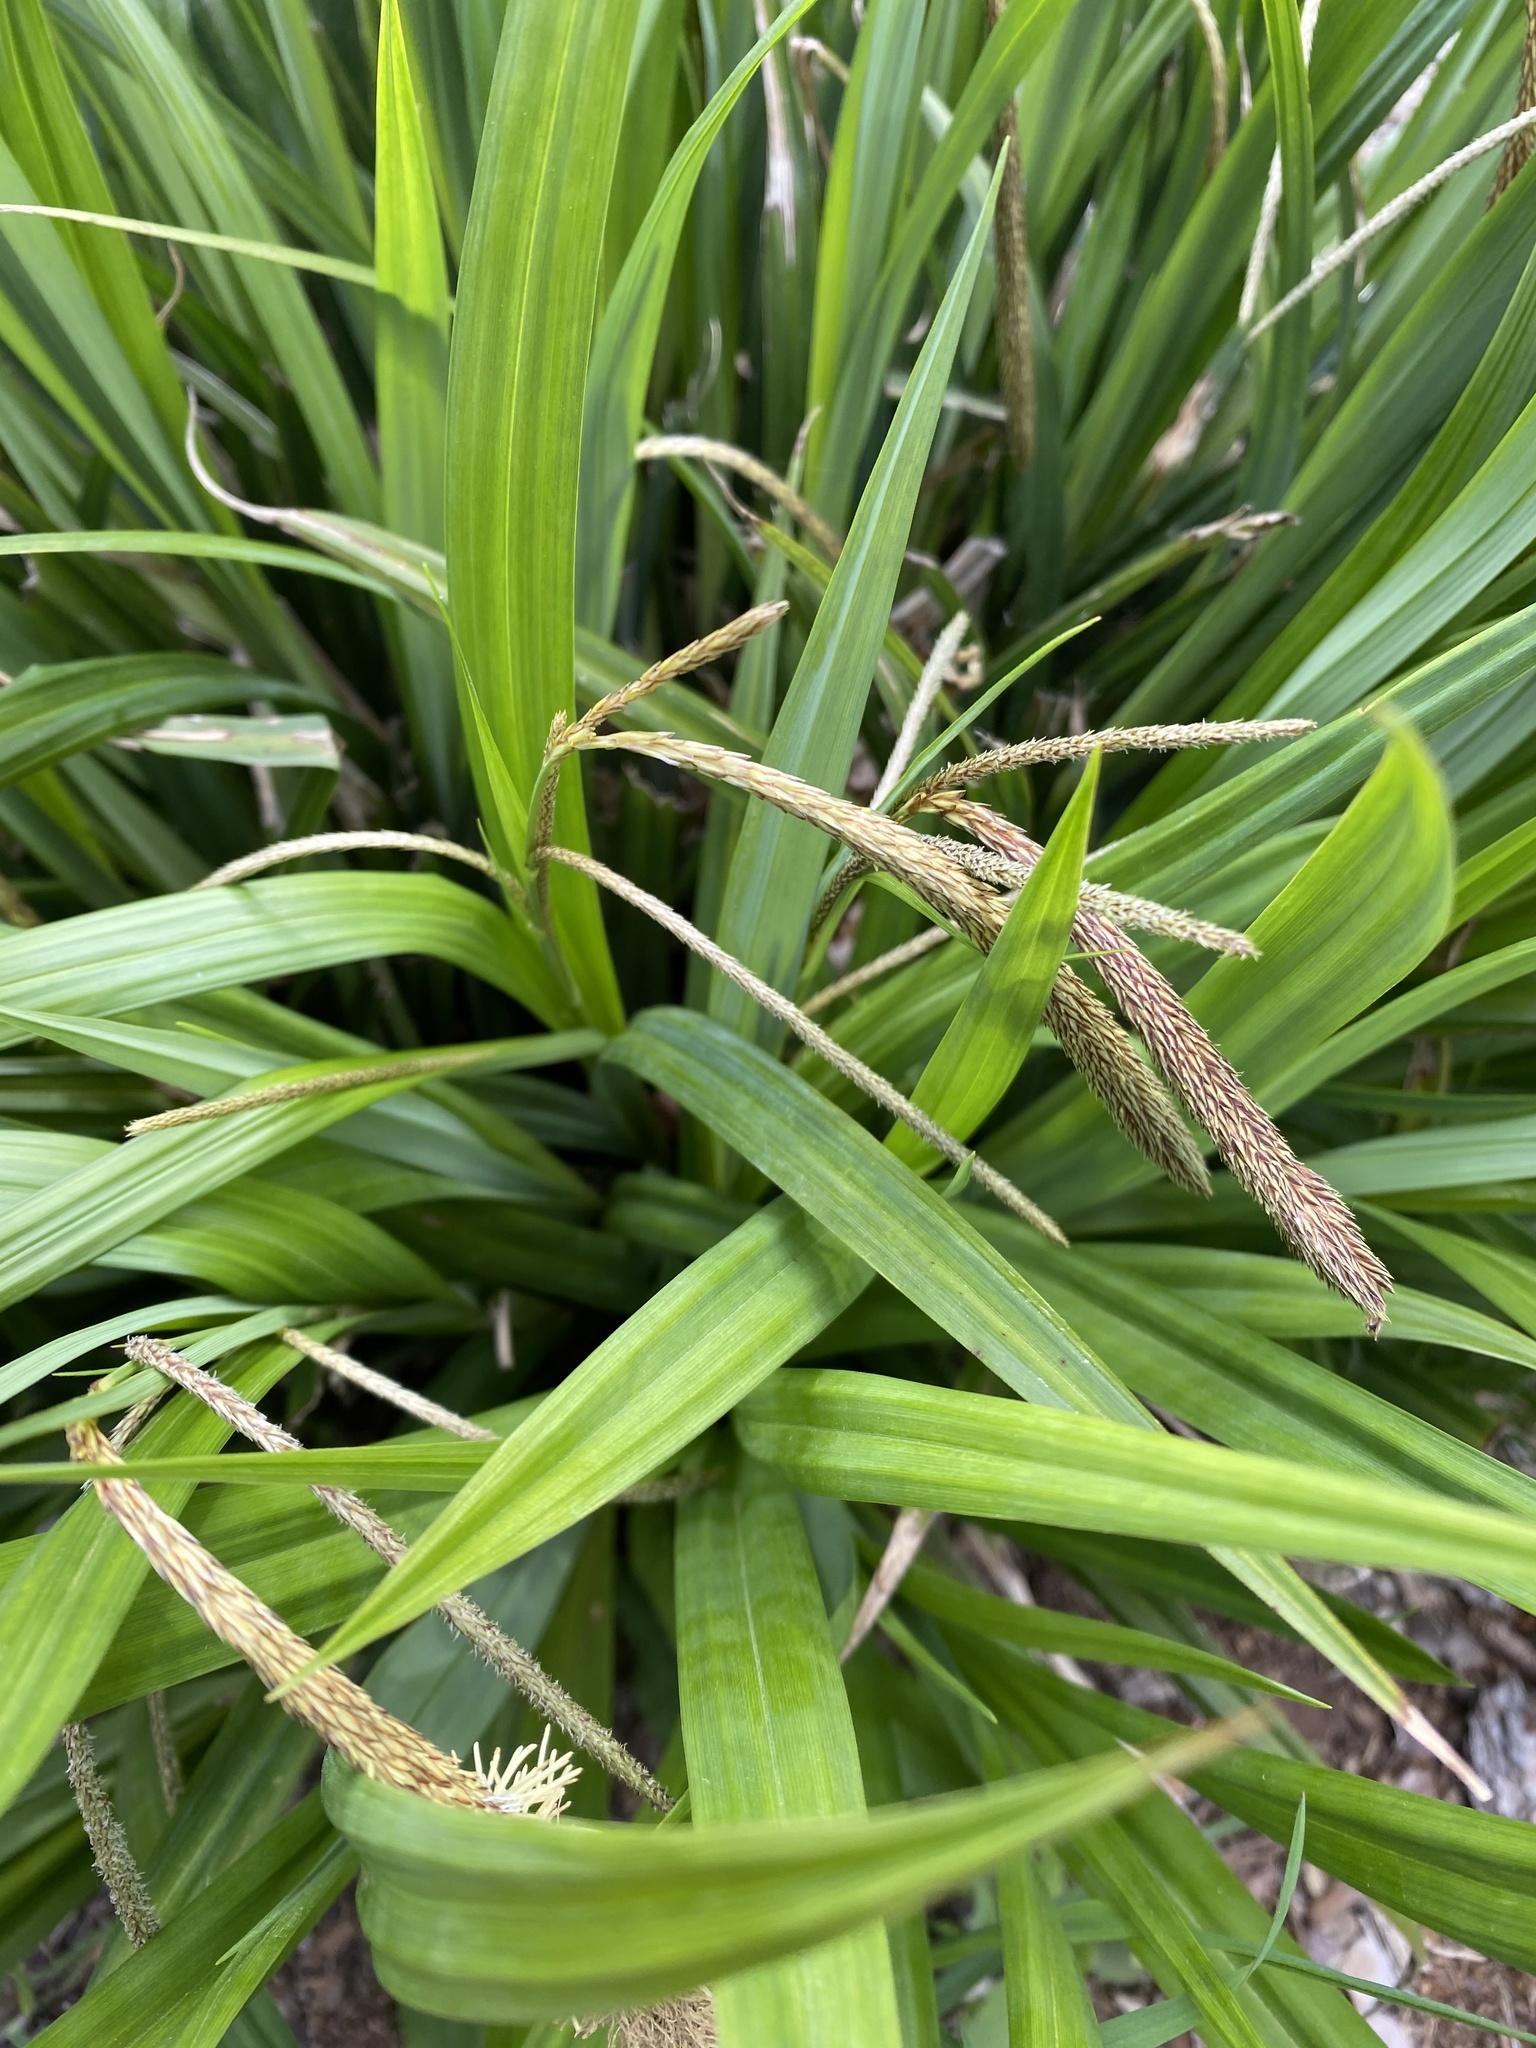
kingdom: Plantae
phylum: Tracheophyta
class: Liliopsida
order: Poales
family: Cyperaceae
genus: Carex
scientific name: Carex pendula
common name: Pendulous sedge
